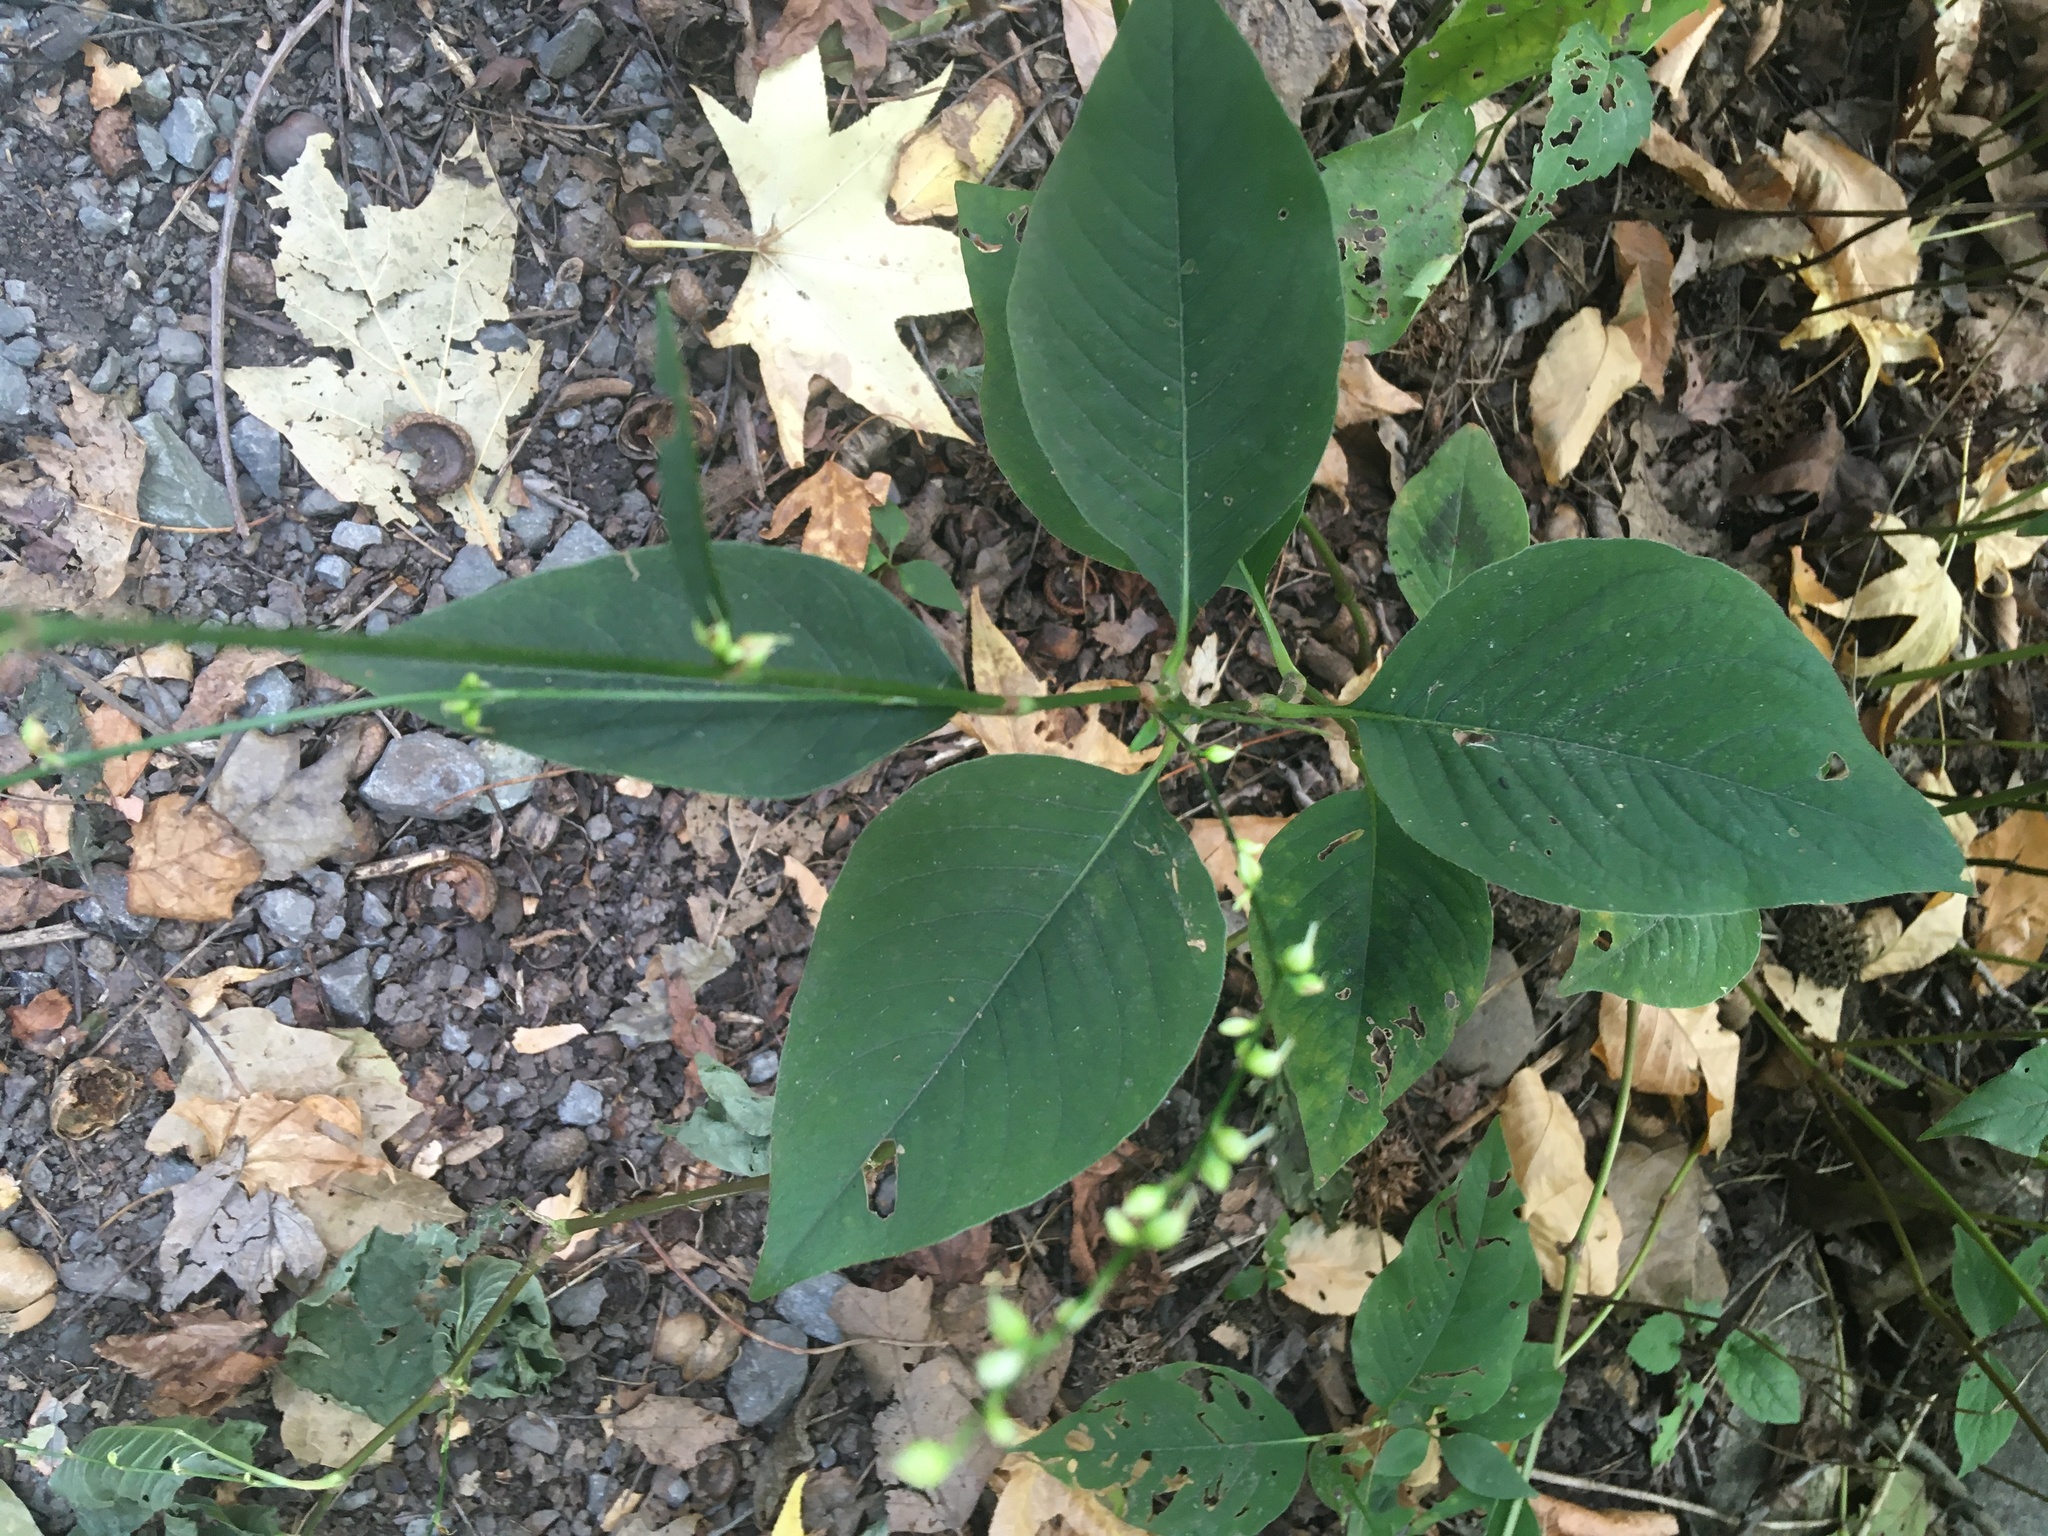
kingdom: Plantae
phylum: Tracheophyta
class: Magnoliopsida
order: Caryophyllales
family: Polygonaceae
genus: Persicaria
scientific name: Persicaria virginiana
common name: Jumpseed
